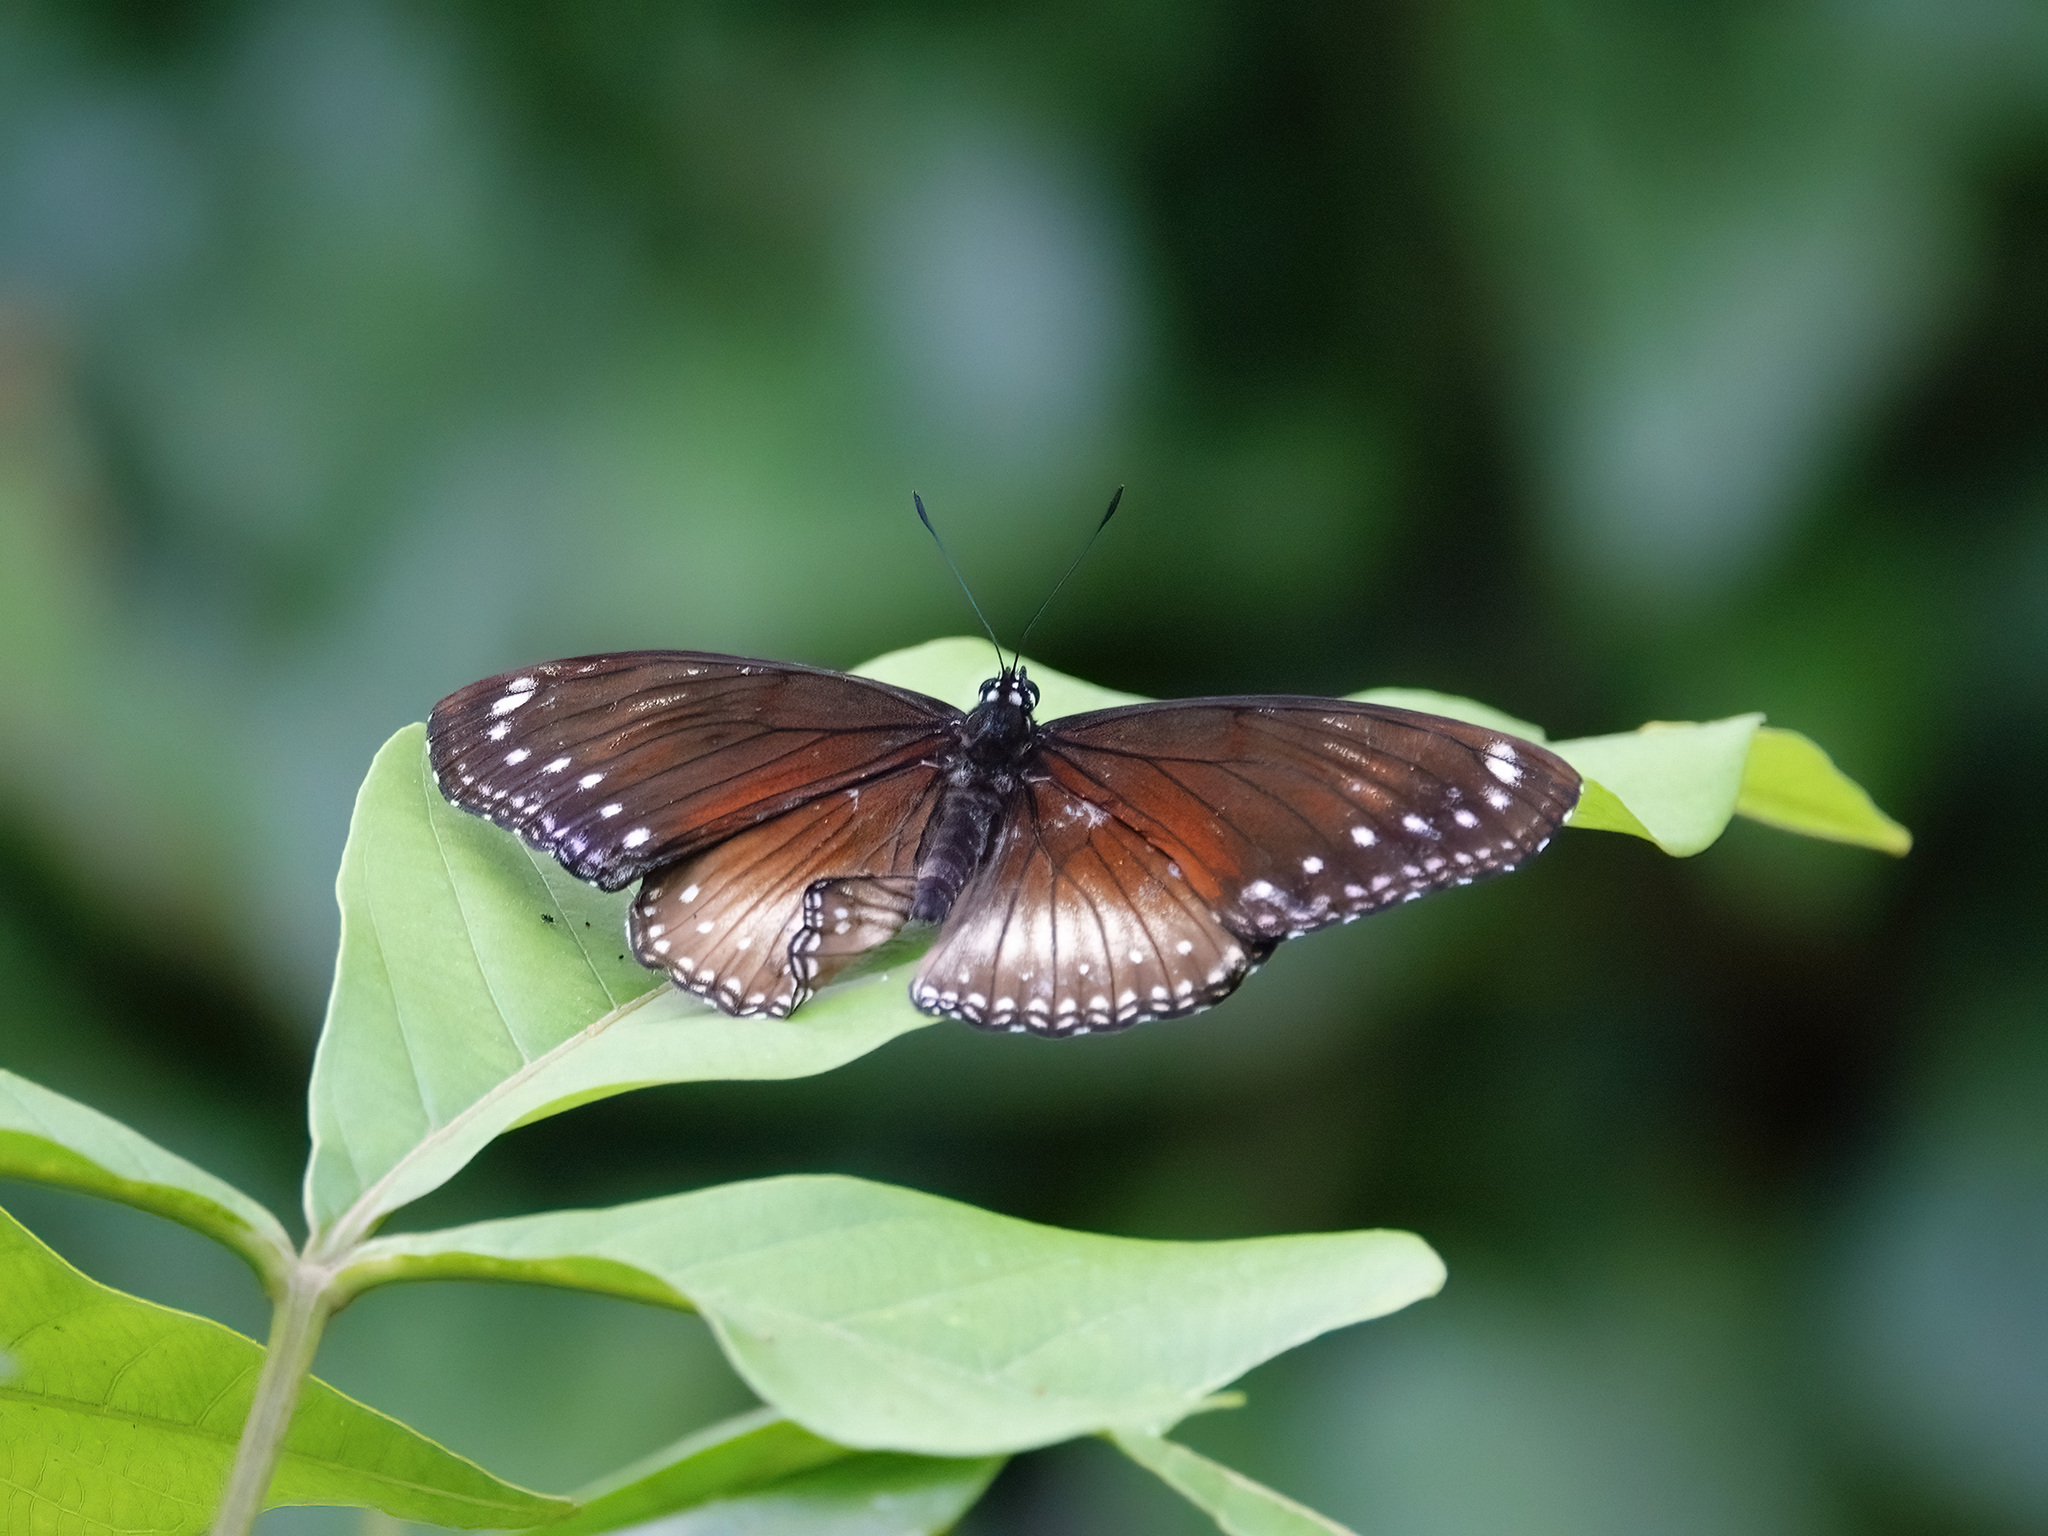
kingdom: Animalia
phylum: Arthropoda
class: Insecta
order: Lepidoptera
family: Nymphalidae
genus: Hypolimnas
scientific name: Hypolimnas anomala
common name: Malayan eggfly
